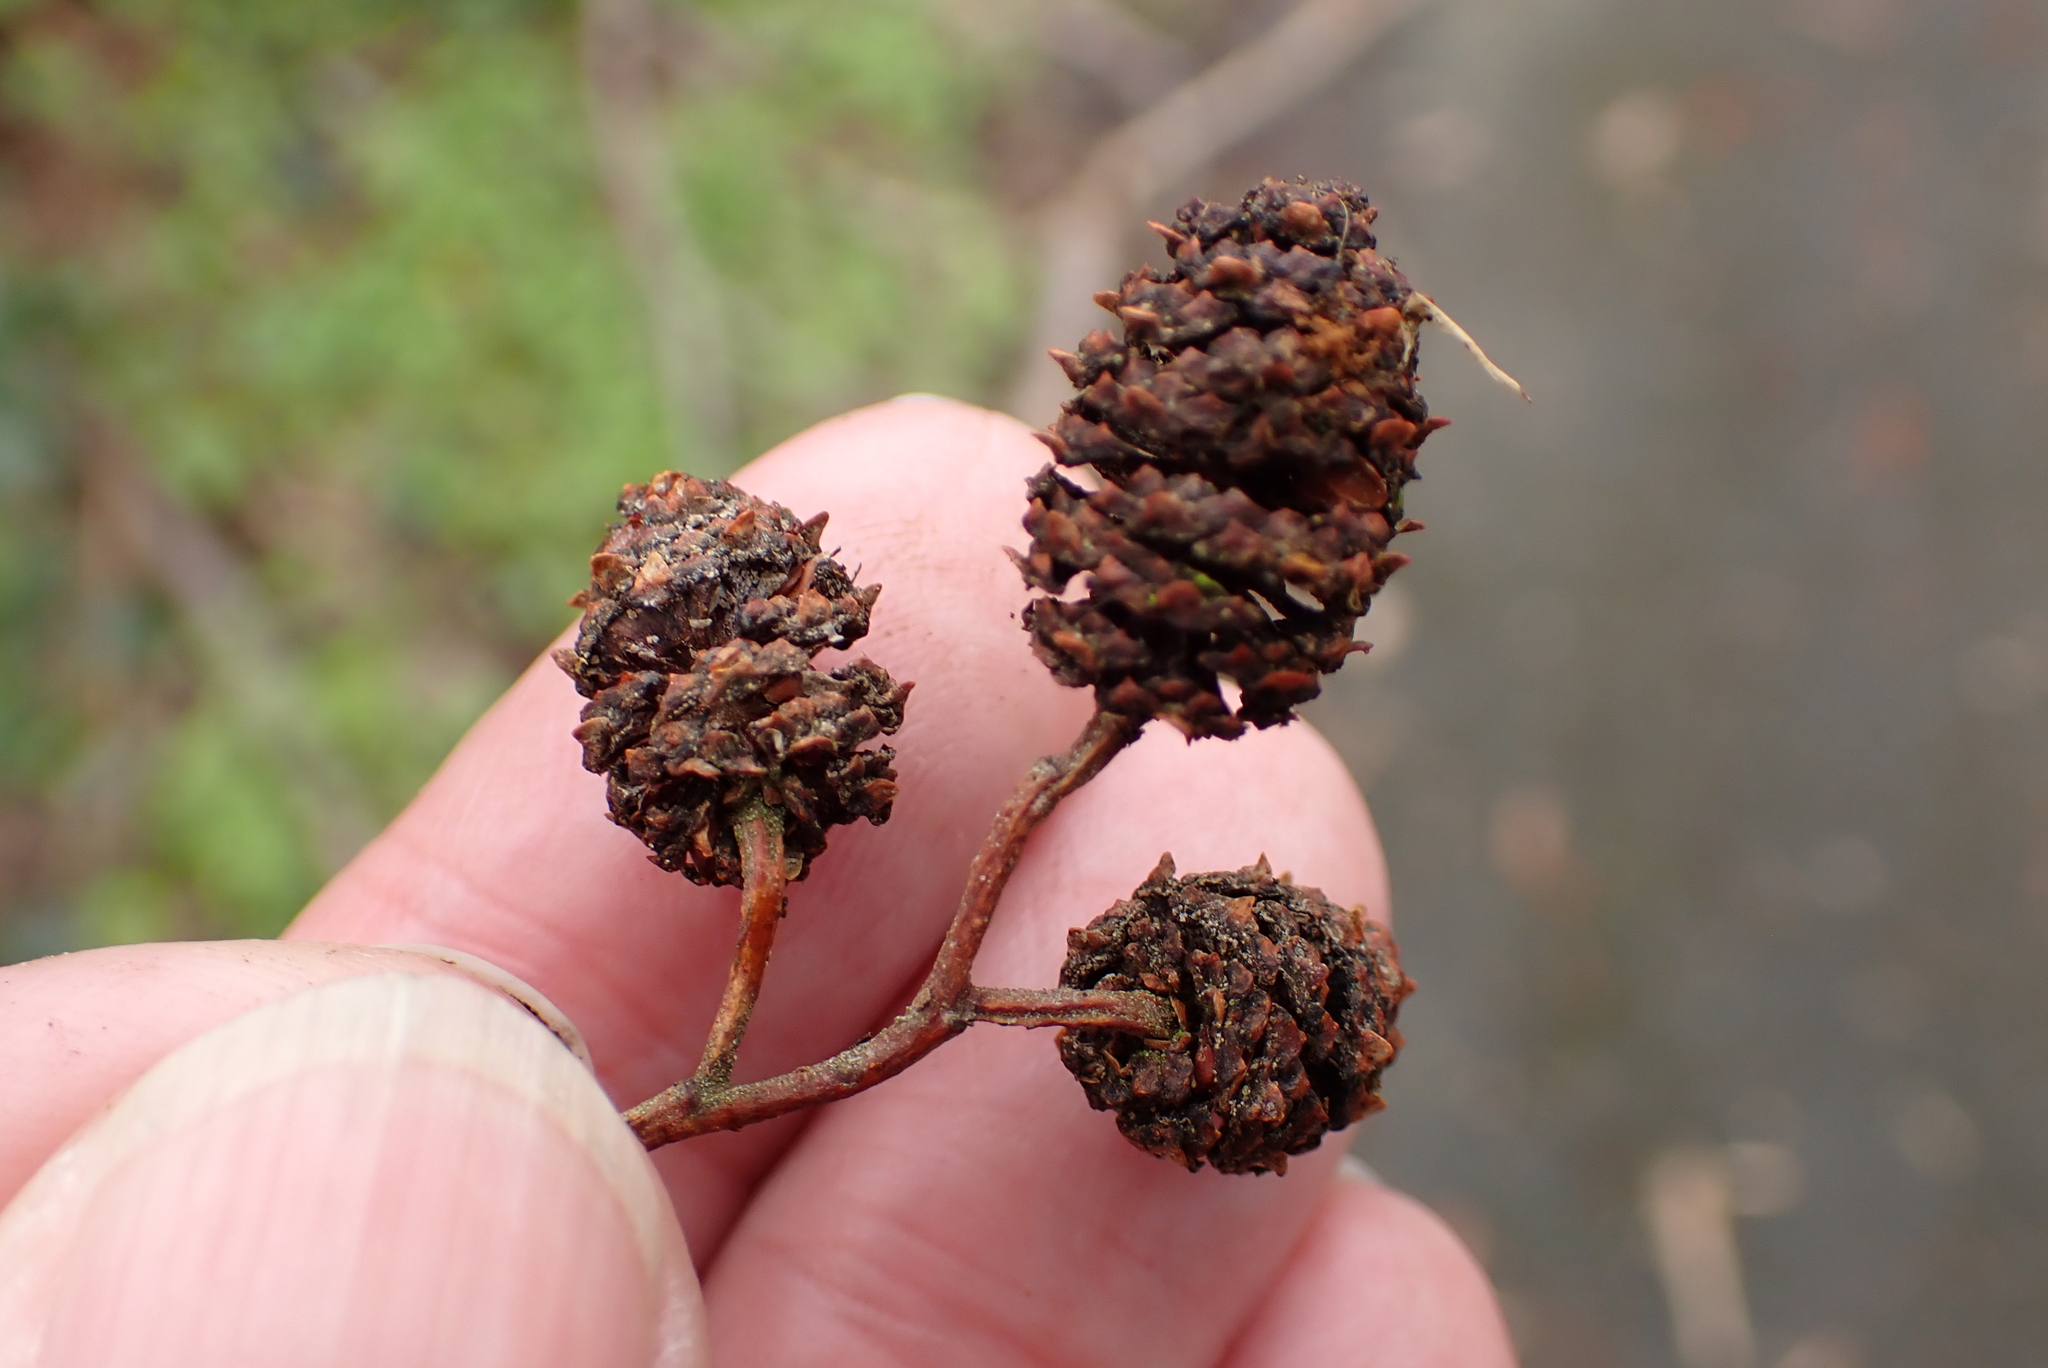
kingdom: Plantae
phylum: Tracheophyta
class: Magnoliopsida
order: Fagales
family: Betulaceae
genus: Alnus
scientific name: Alnus glutinosa
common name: Black alder
